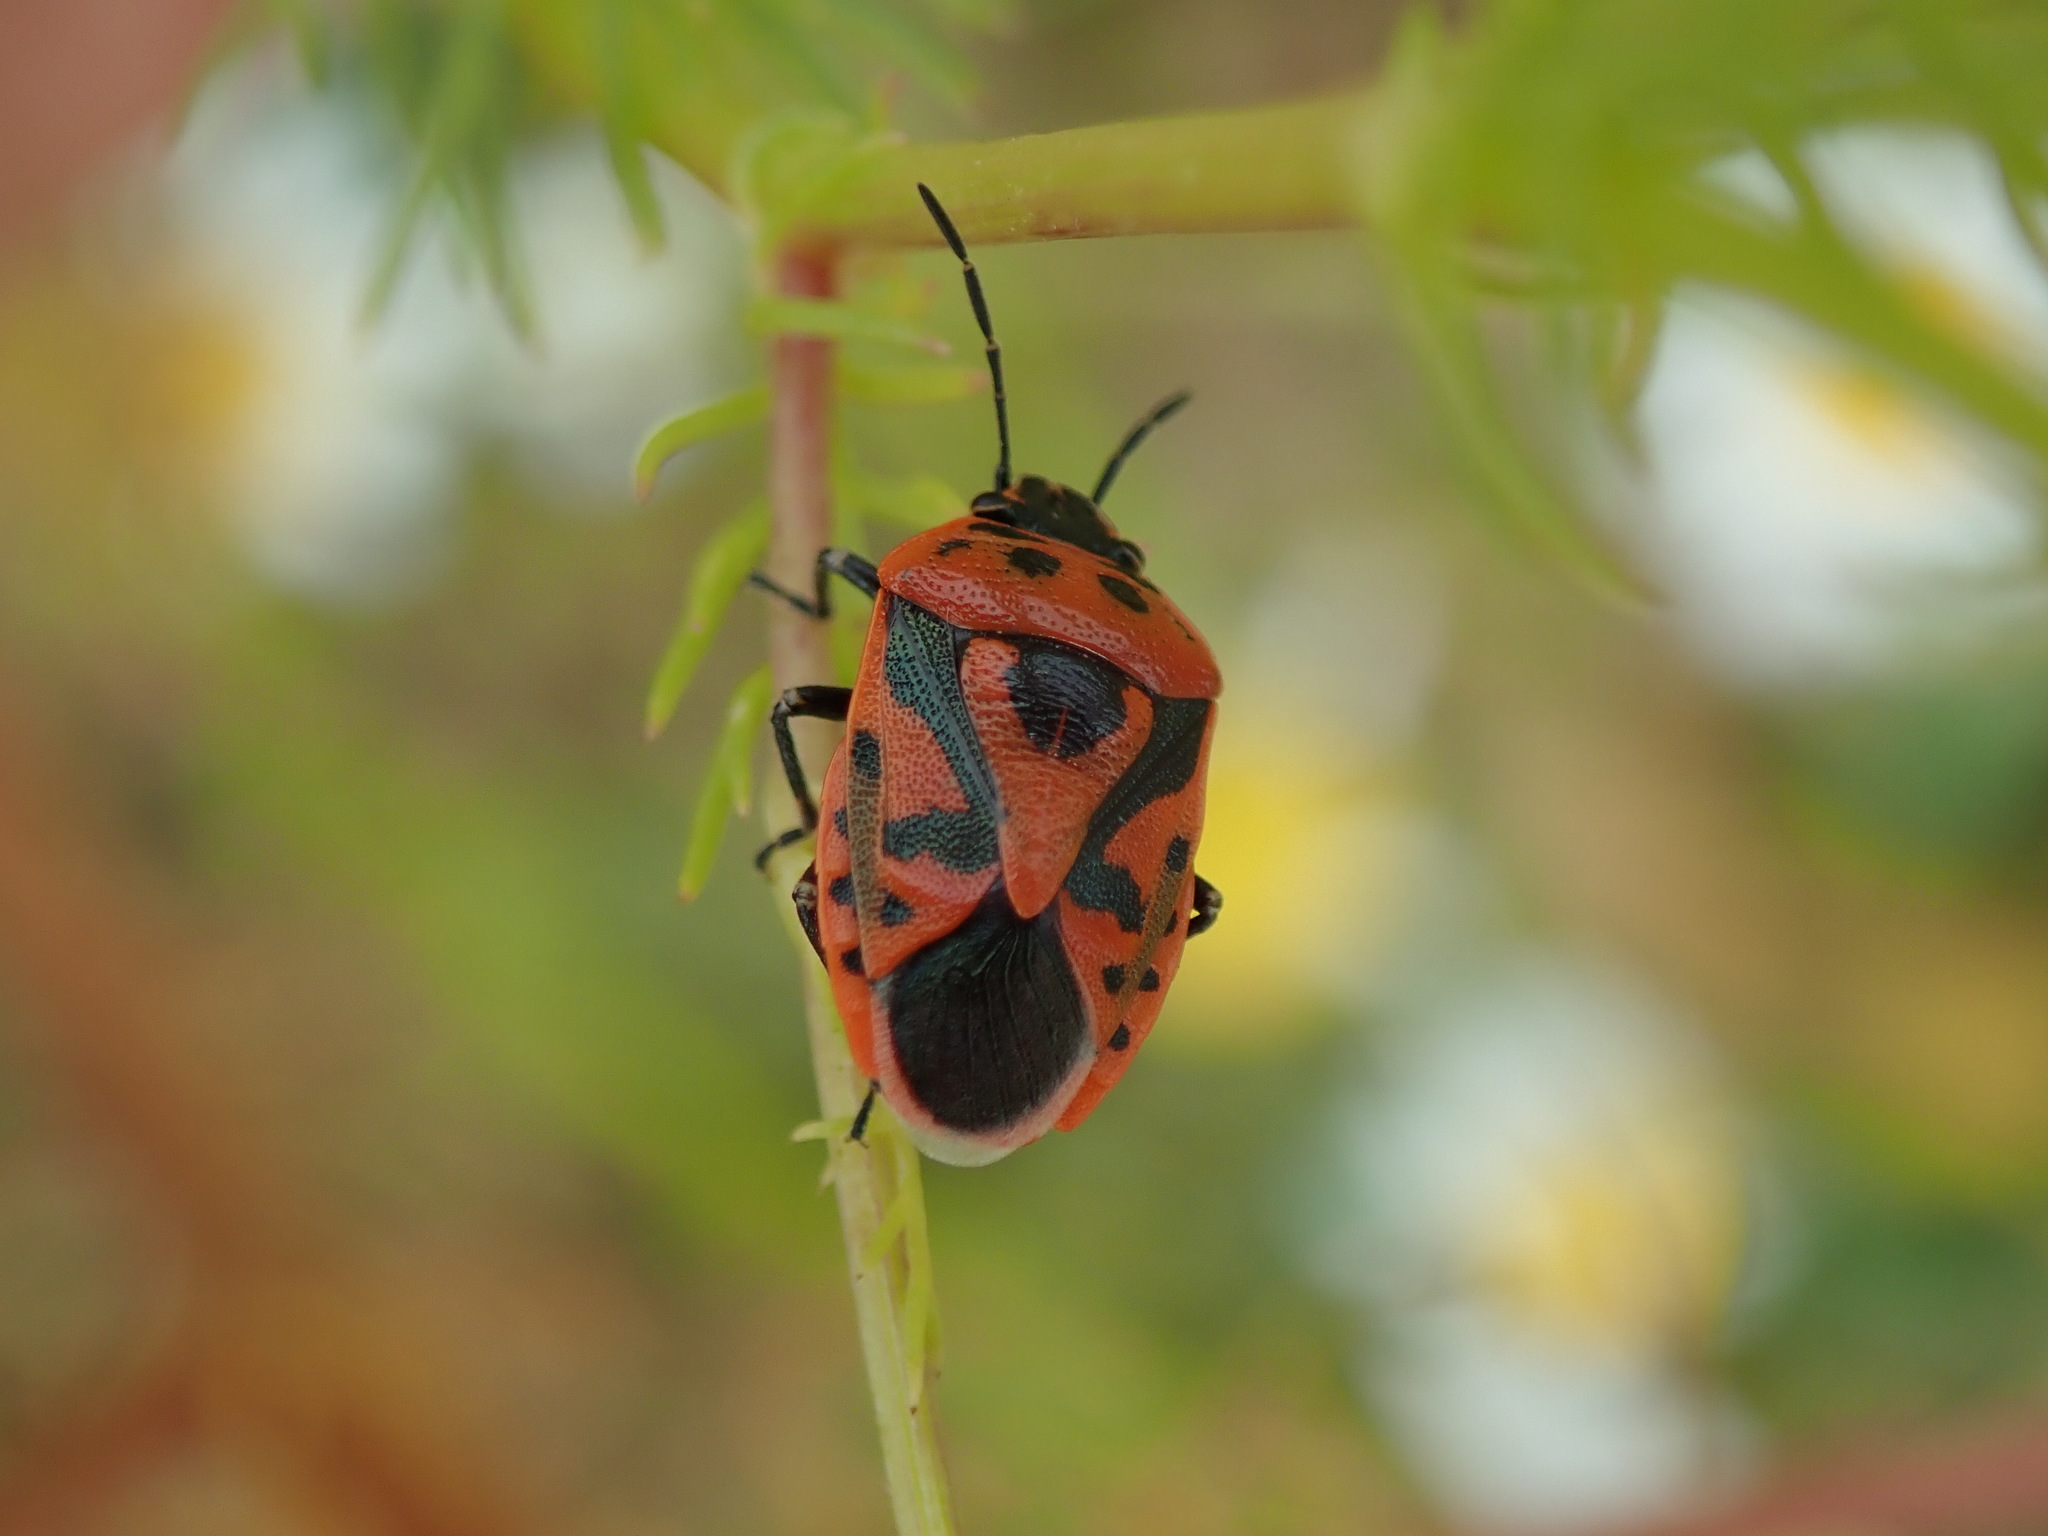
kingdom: Animalia
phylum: Arthropoda
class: Insecta
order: Hemiptera
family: Pentatomidae
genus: Eurydema
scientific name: Eurydema ornata
